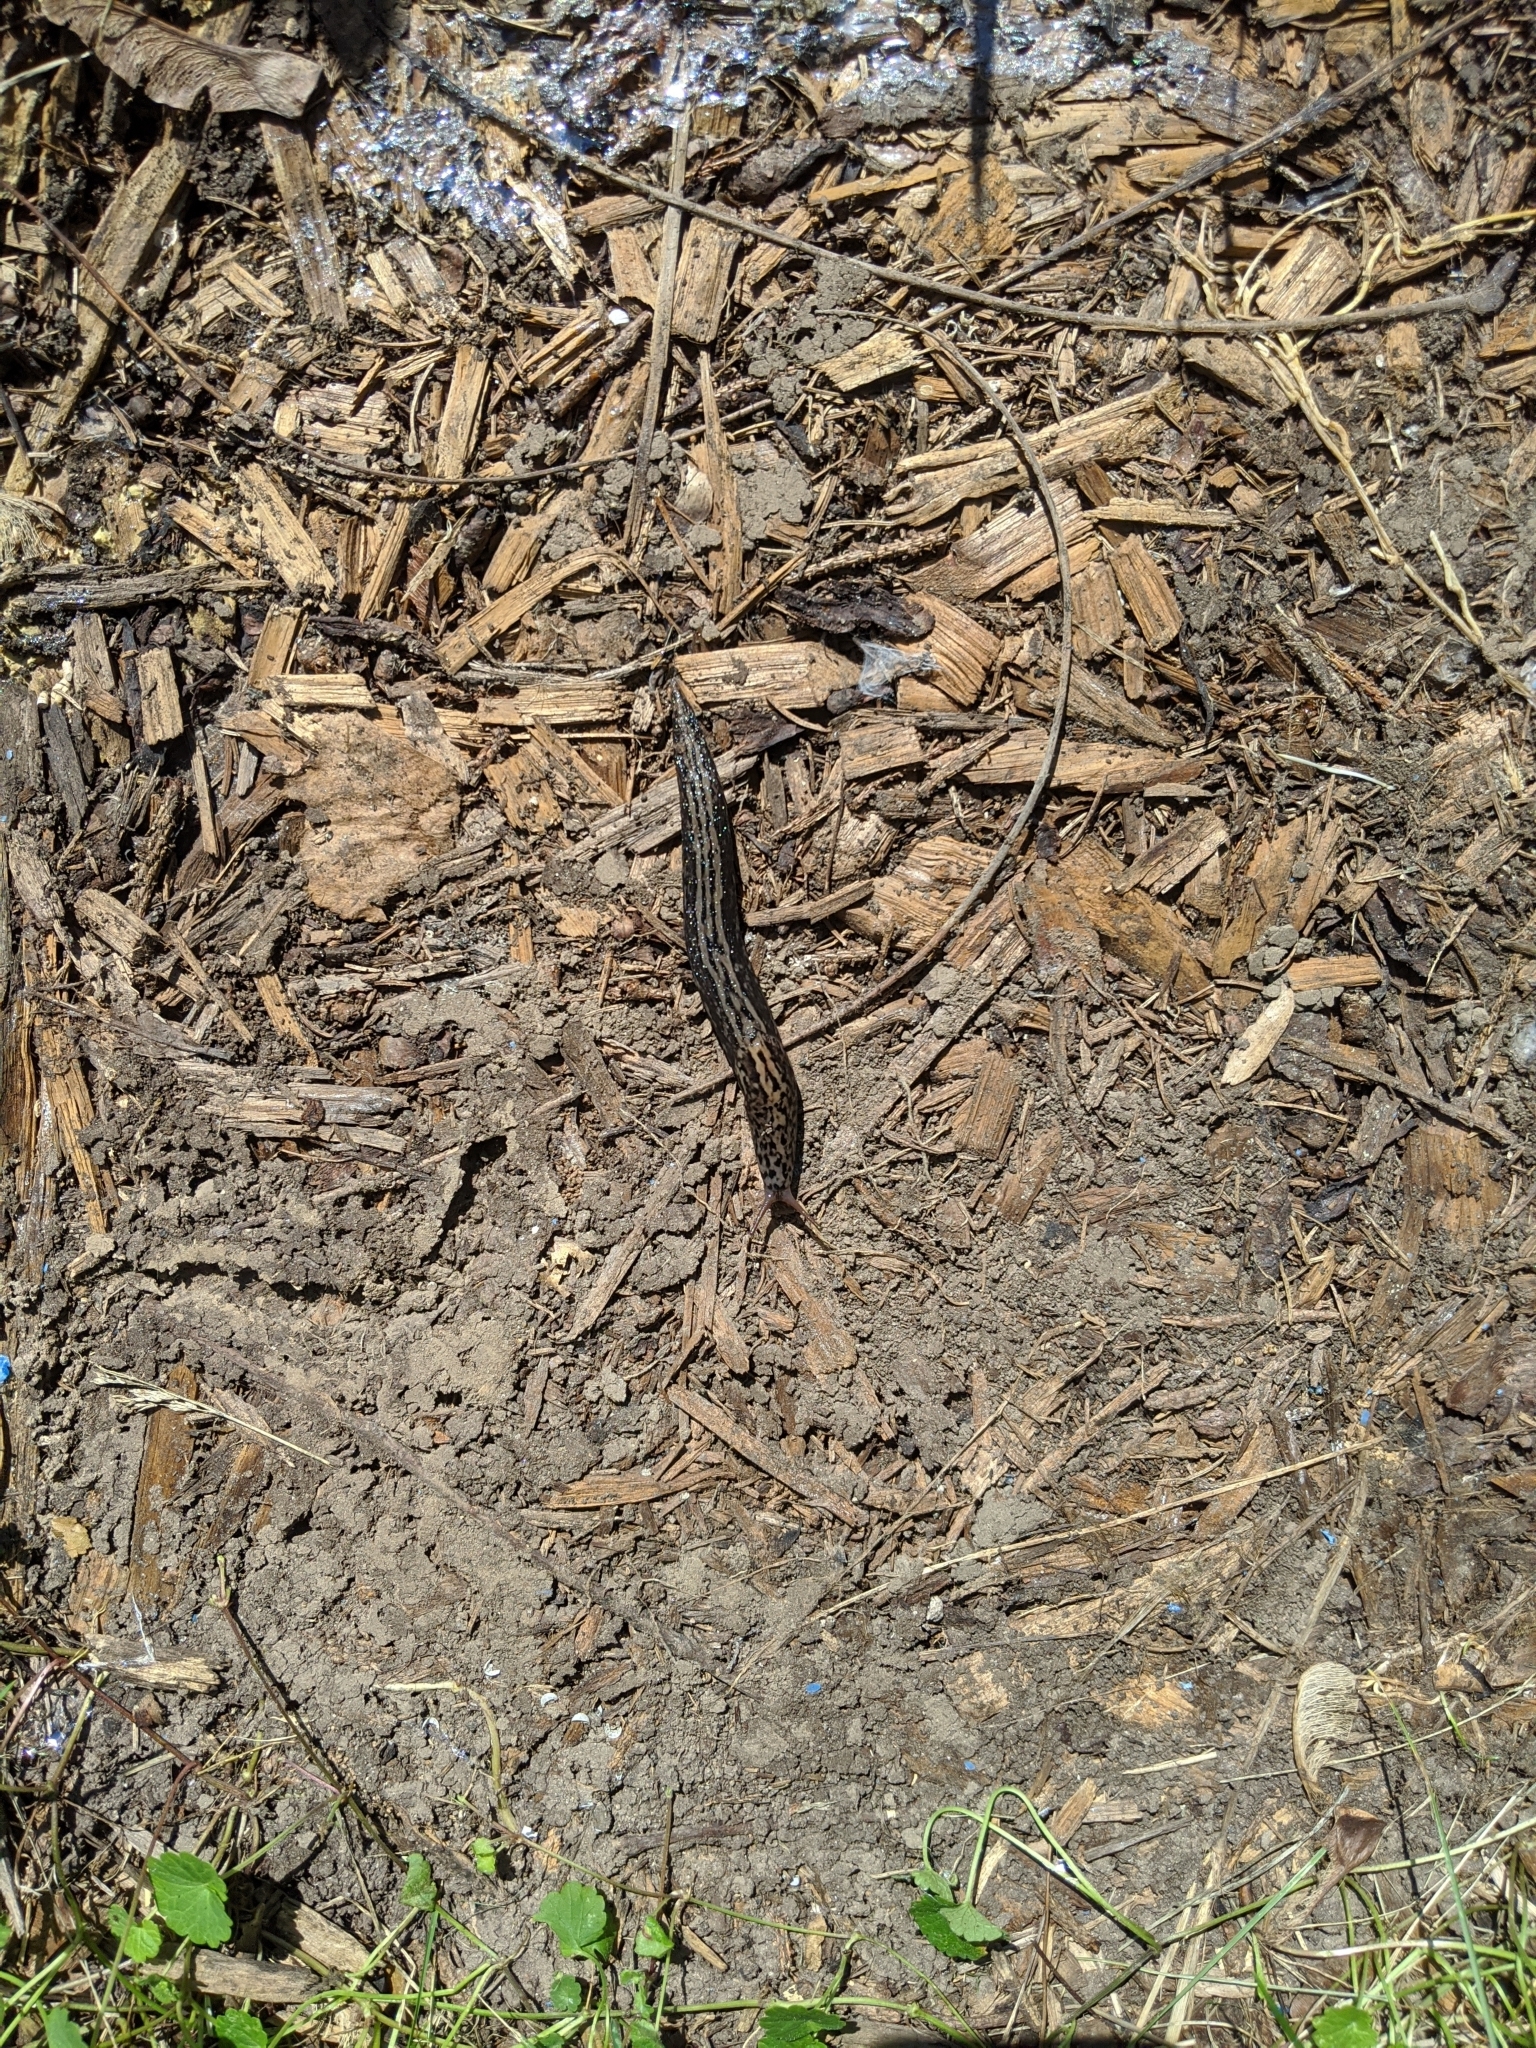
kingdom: Animalia
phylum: Mollusca
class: Gastropoda
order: Stylommatophora
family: Limacidae
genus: Limax
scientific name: Limax maximus
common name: Great grey slug
